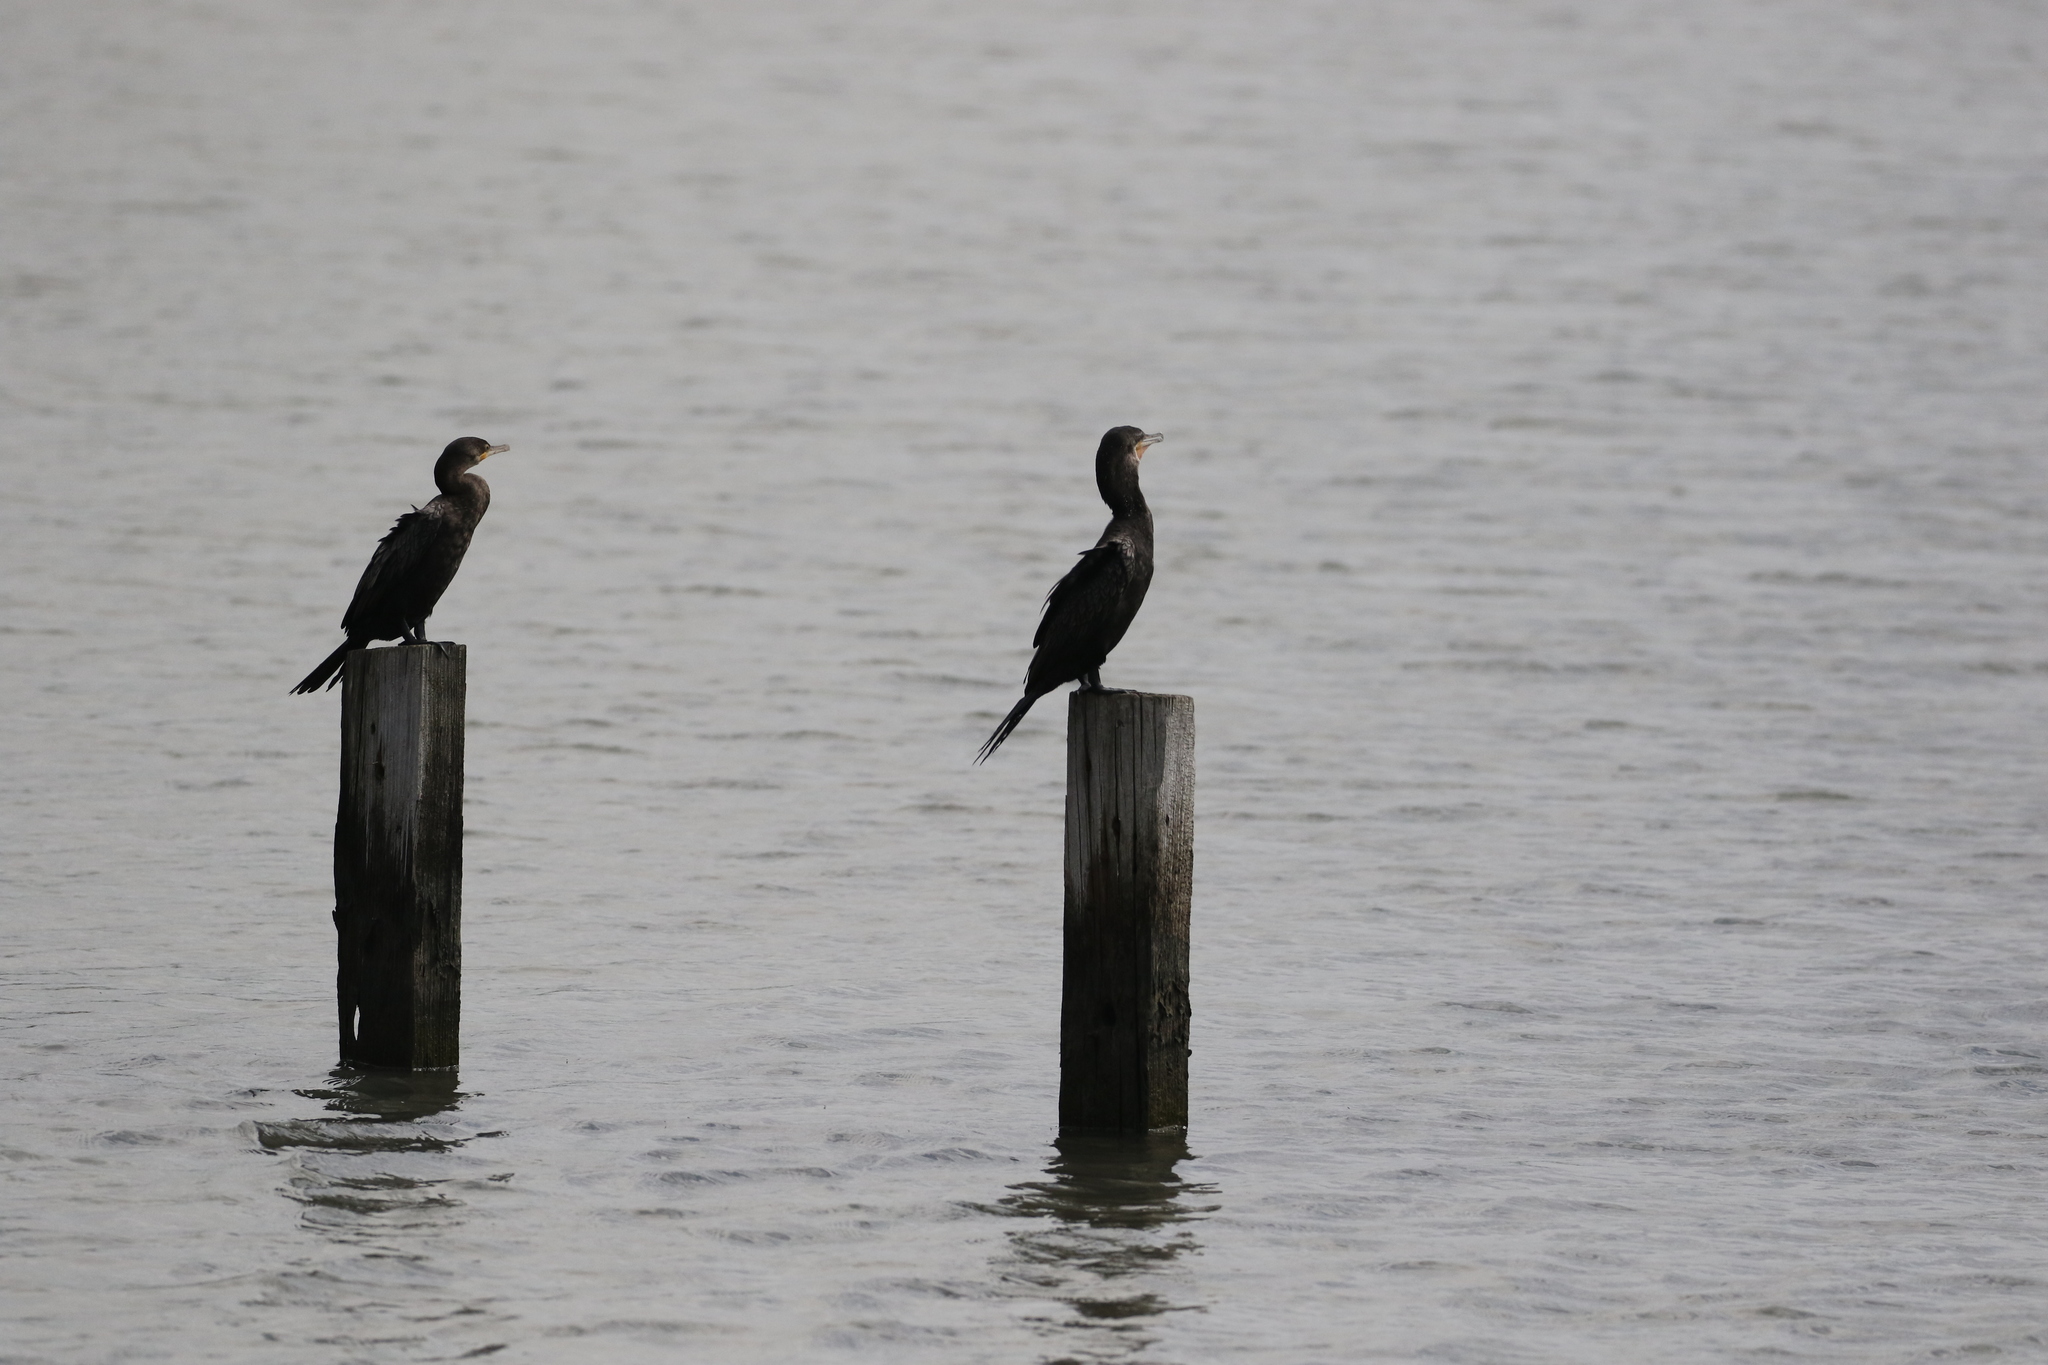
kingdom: Animalia
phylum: Chordata
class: Aves
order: Suliformes
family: Phalacrocoracidae
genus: Phalacrocorax
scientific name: Phalacrocorax brasilianus
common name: Neotropic cormorant
